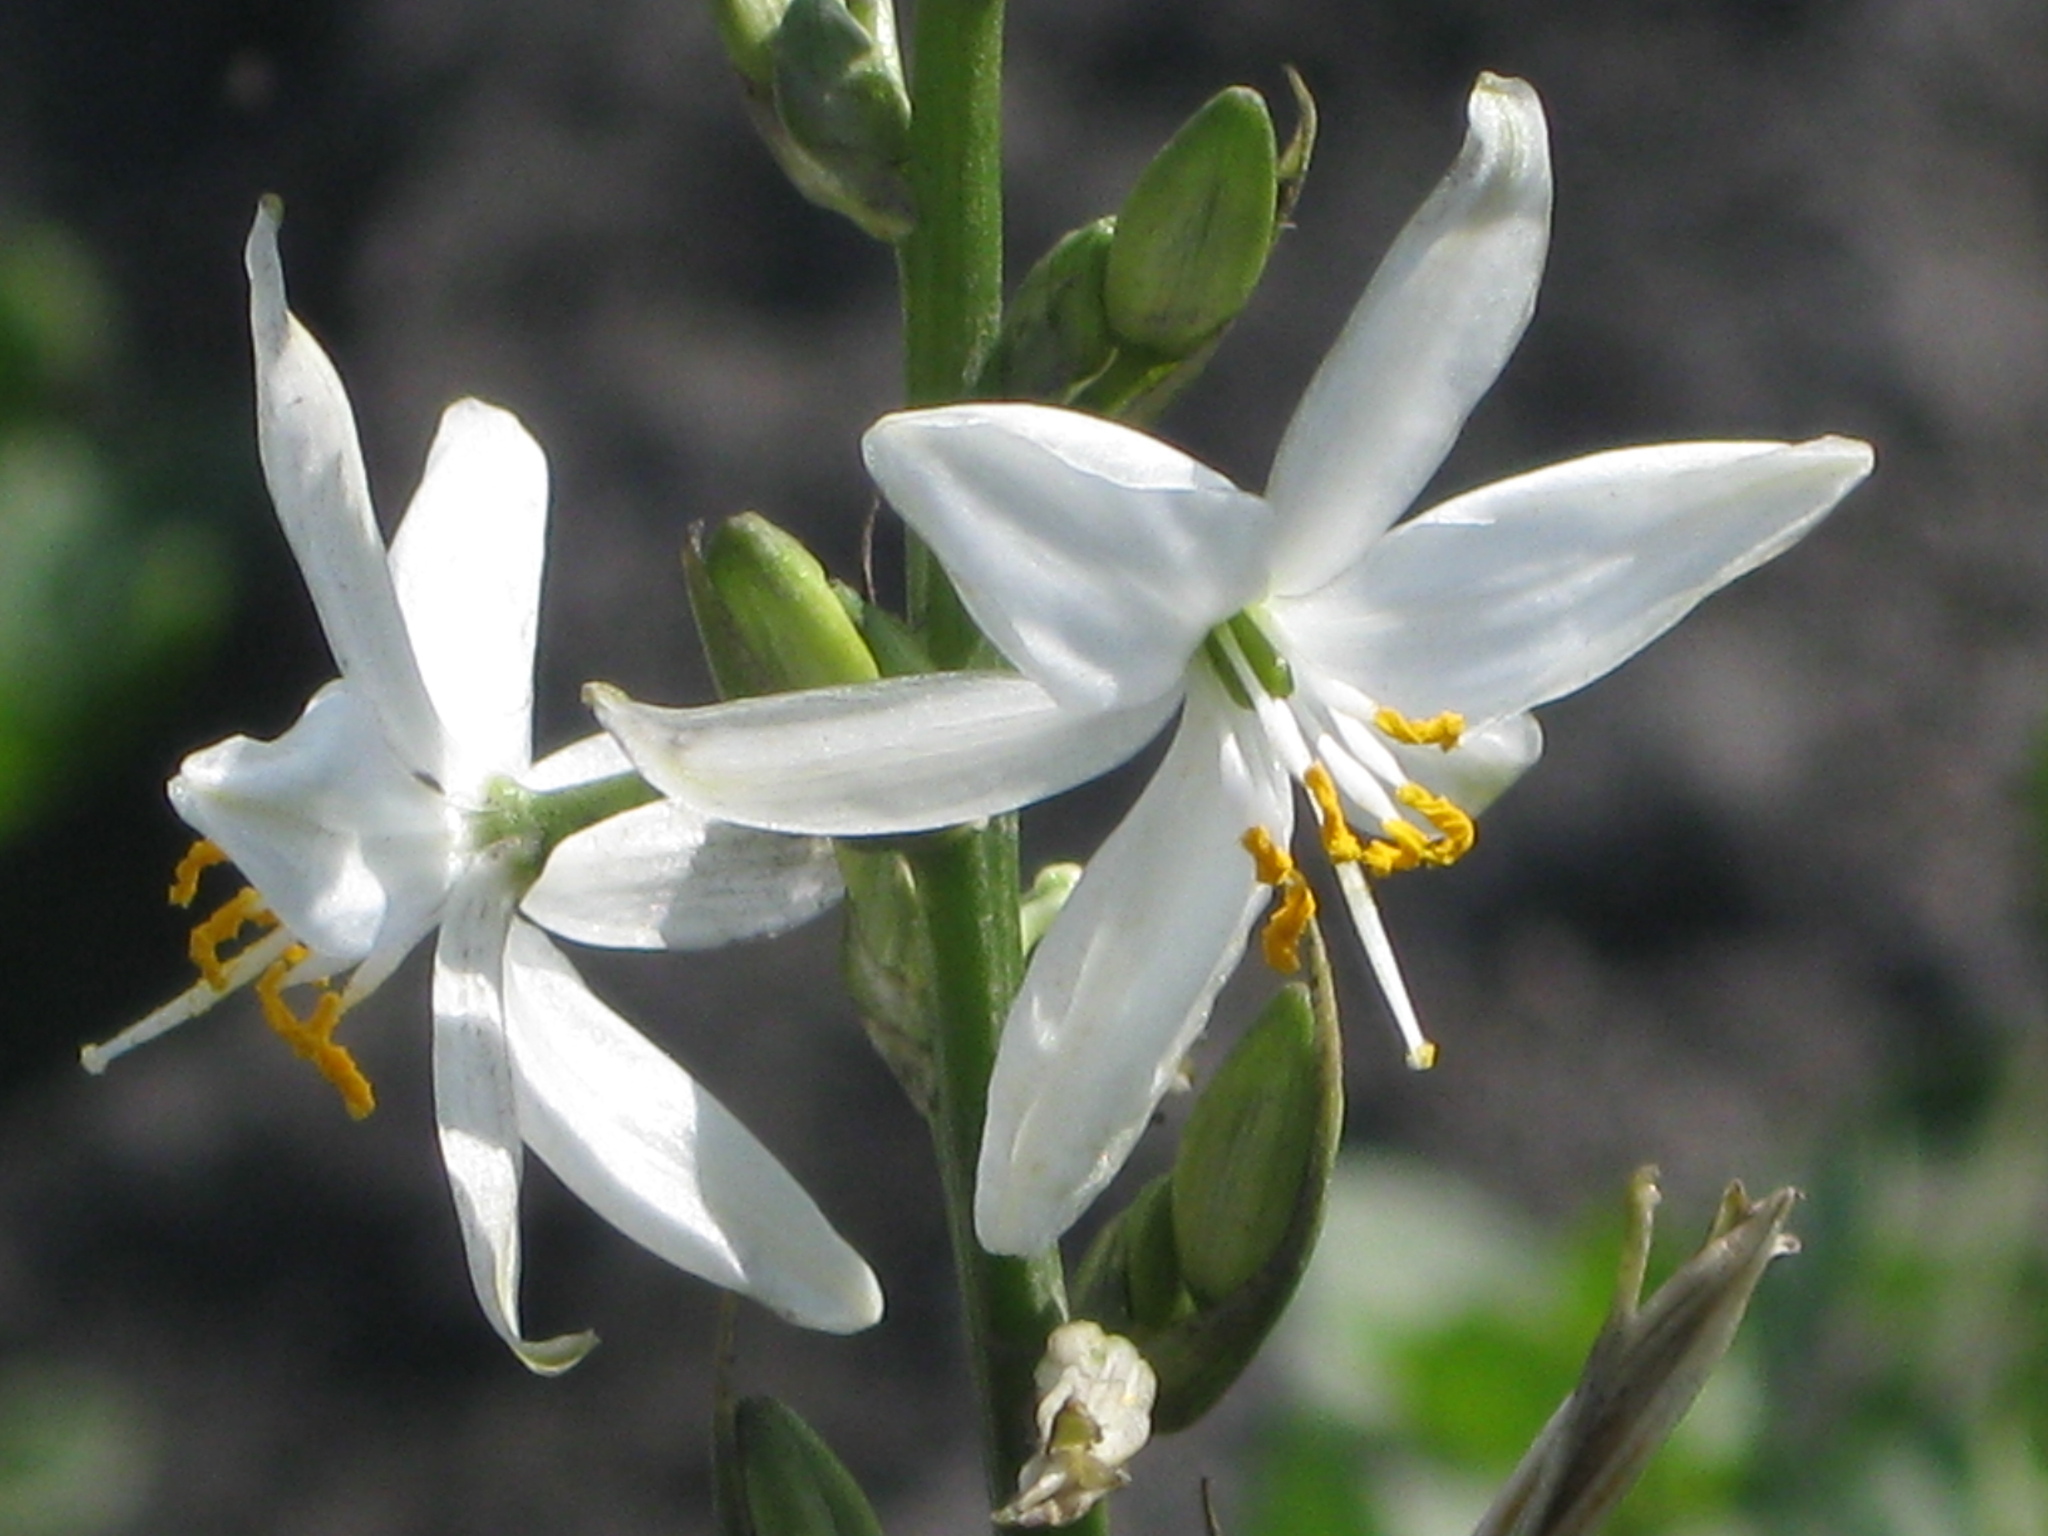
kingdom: Plantae
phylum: Tracheophyta
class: Liliopsida
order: Asparagales
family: Asparagaceae
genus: Trihesperus
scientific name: Trihesperus glaucus
